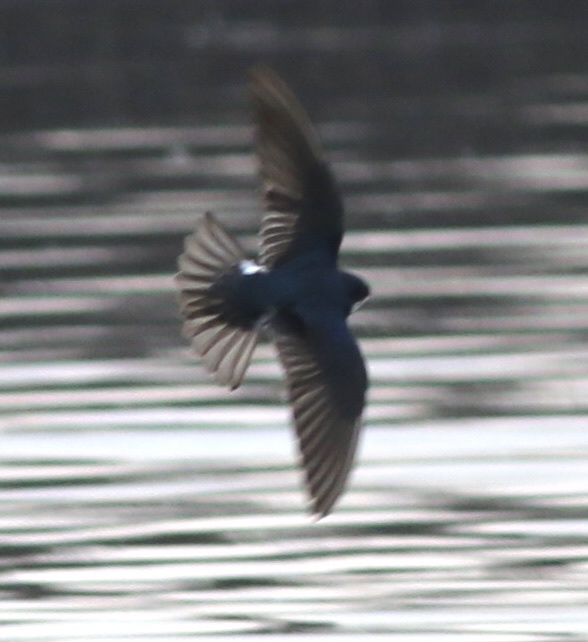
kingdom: Animalia
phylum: Chordata
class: Aves
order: Passeriformes
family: Hirundinidae
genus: Tachycineta
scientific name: Tachycineta bicolor
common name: Tree swallow
